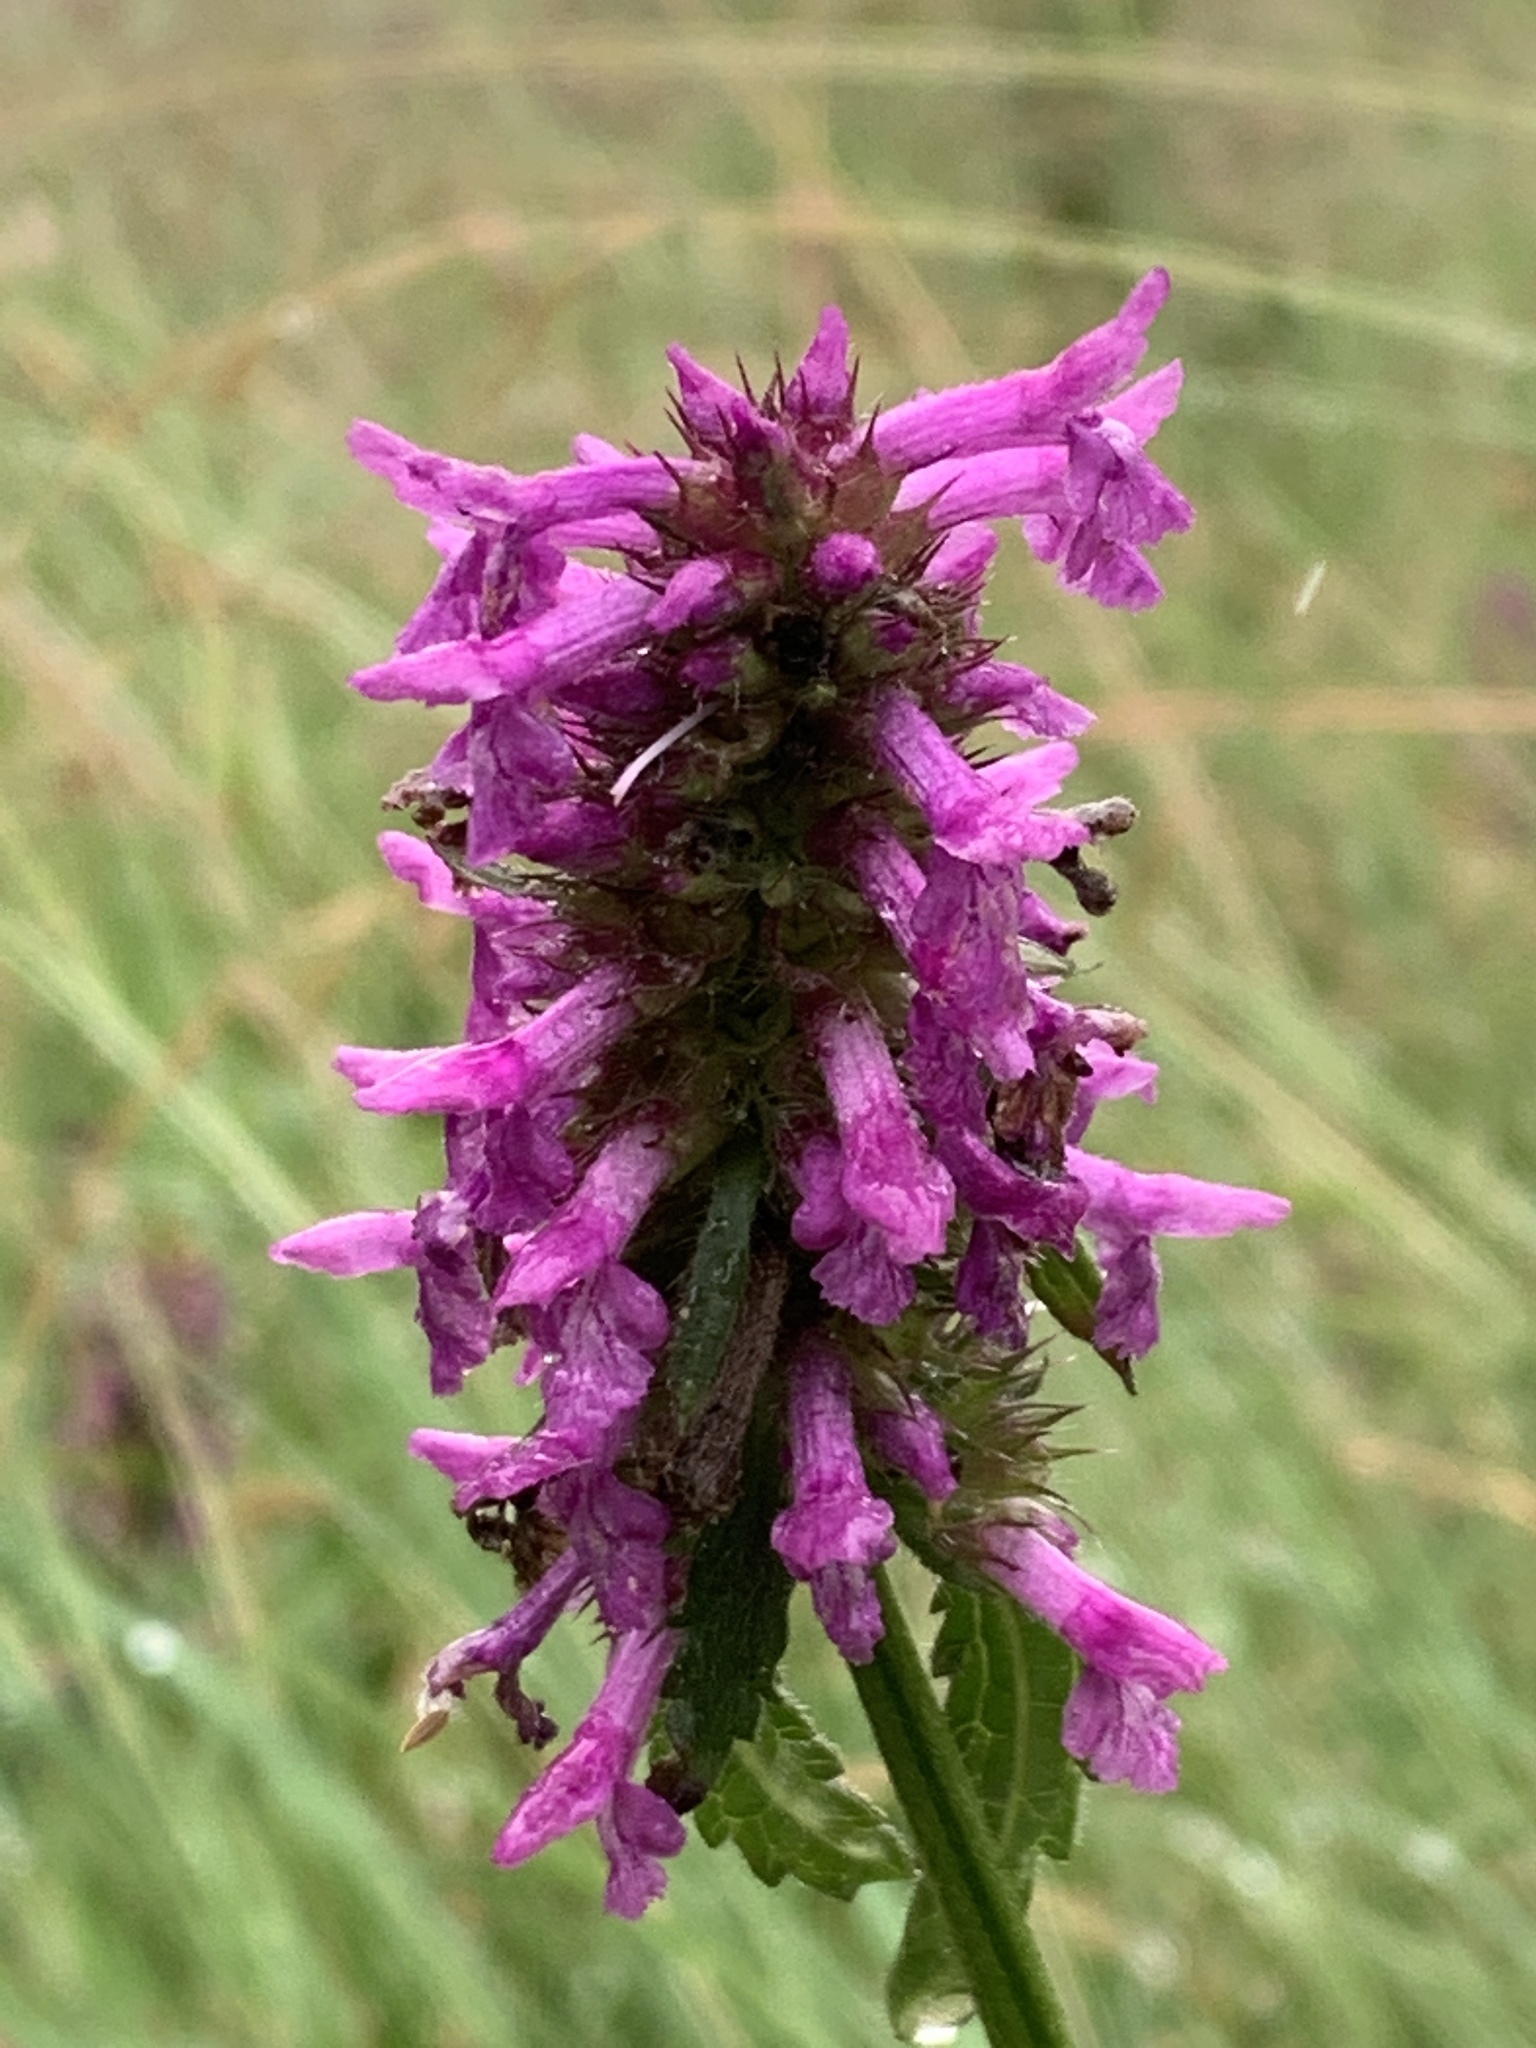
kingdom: Plantae
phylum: Tracheophyta
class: Magnoliopsida
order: Lamiales
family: Lamiaceae
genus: Betonica
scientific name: Betonica officinalis
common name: Bishop's-wort
